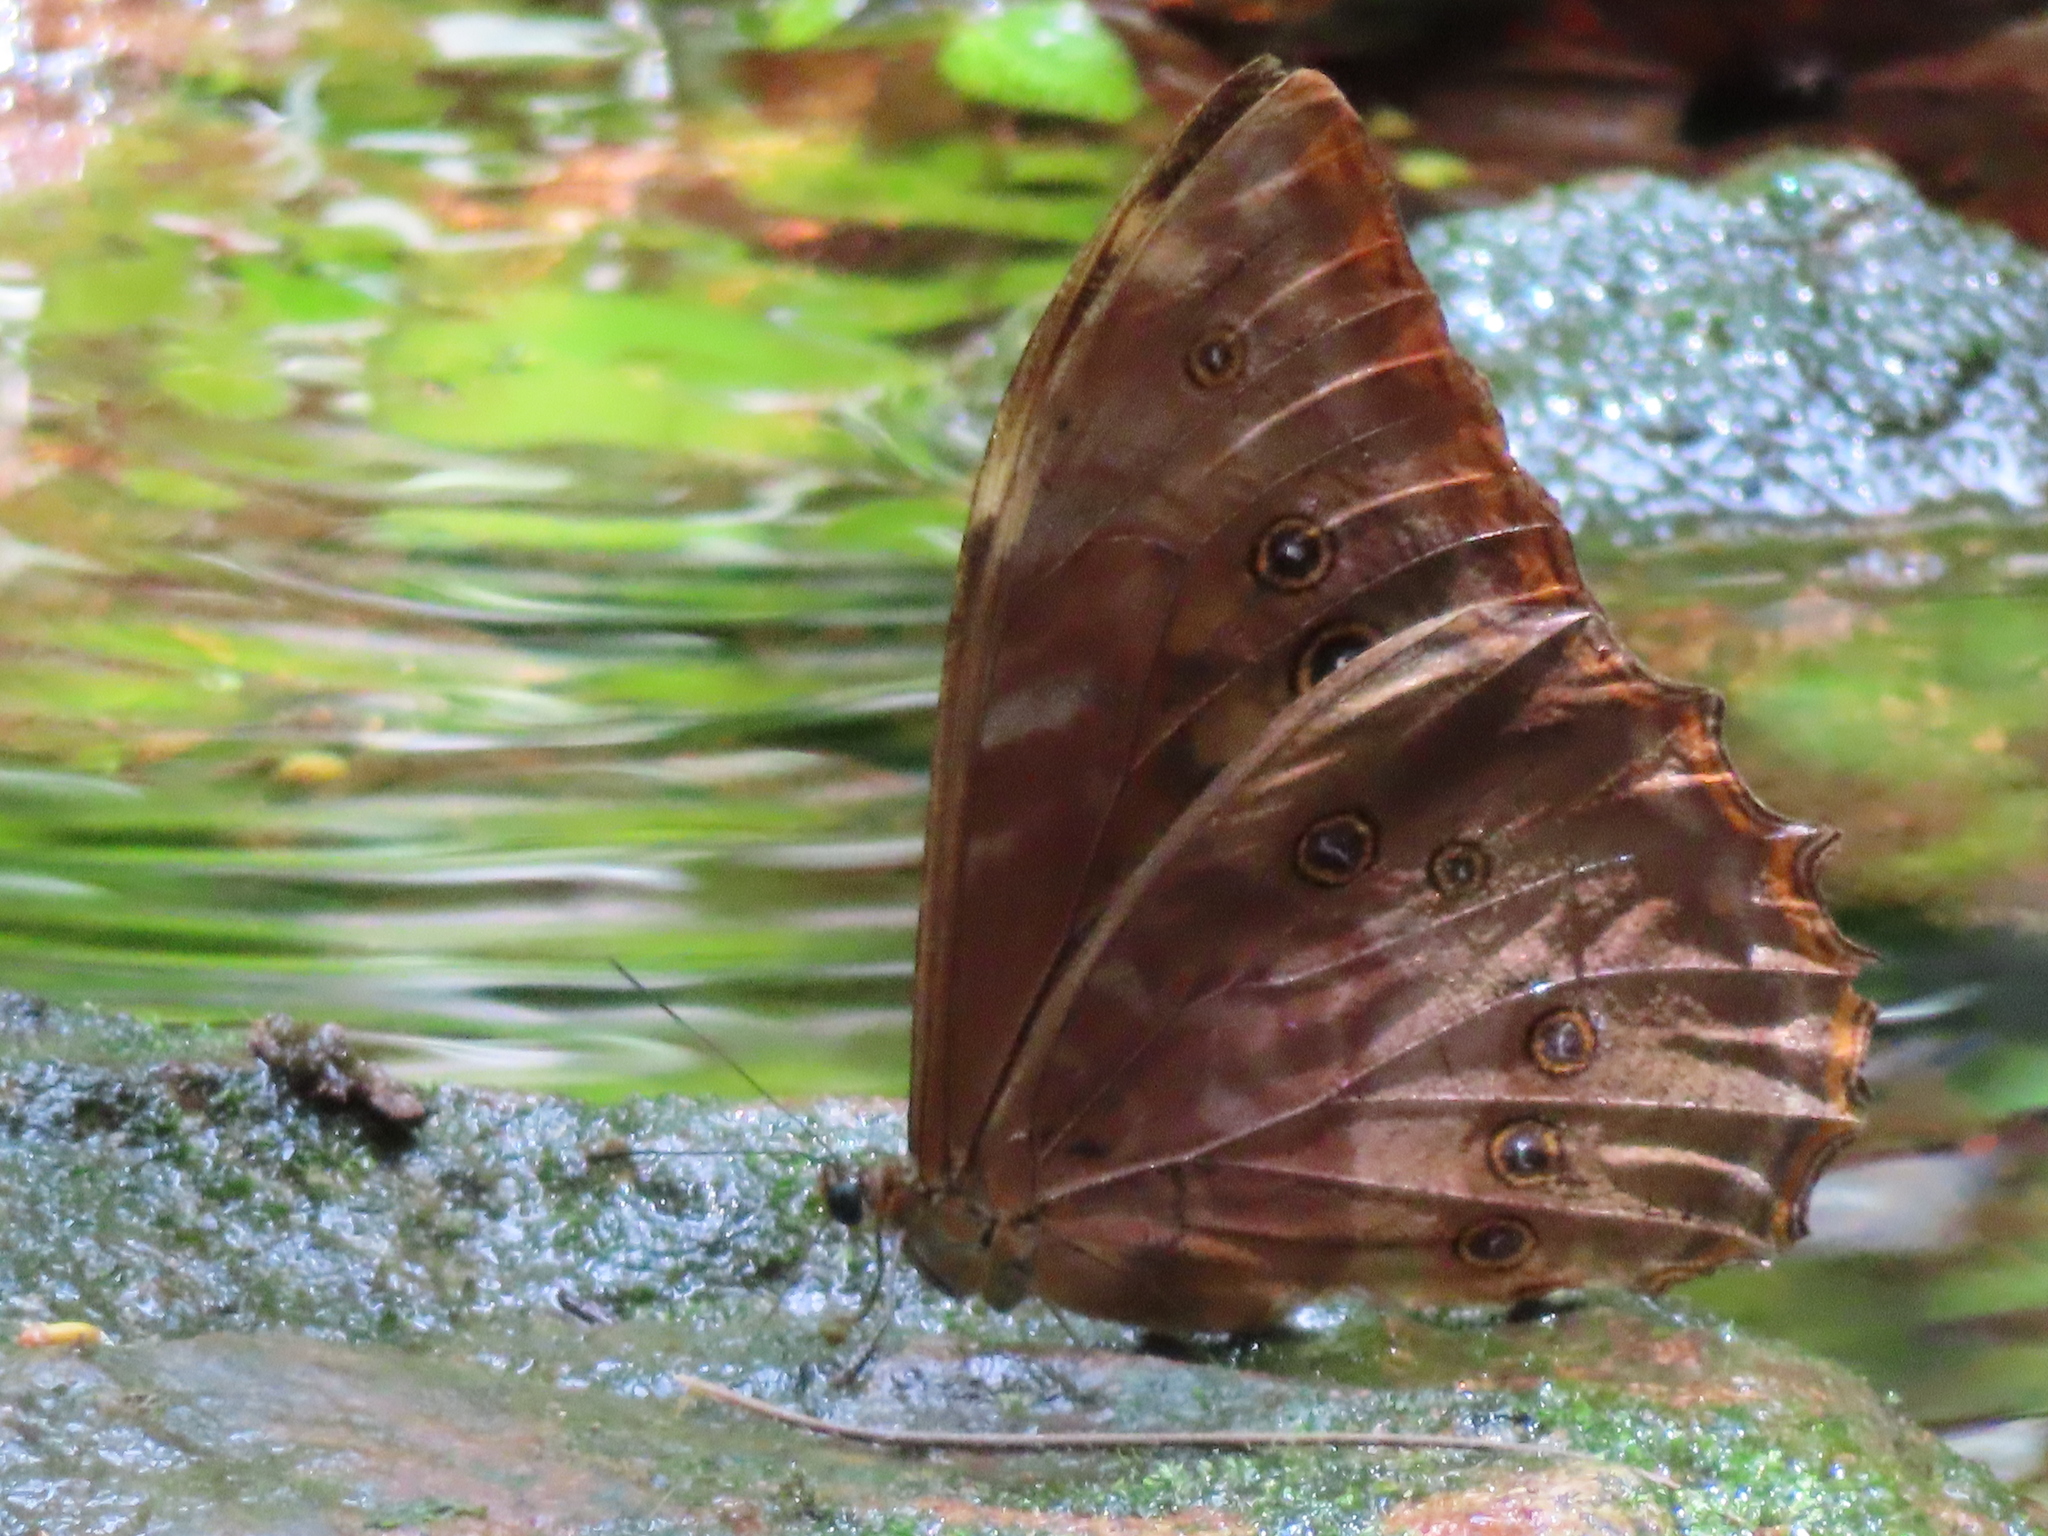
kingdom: Animalia
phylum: Arthropoda
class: Insecta
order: Lepidoptera
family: Nymphalidae
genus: Morpho
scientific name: Morpho theseus
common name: Stub-tailed morpho
